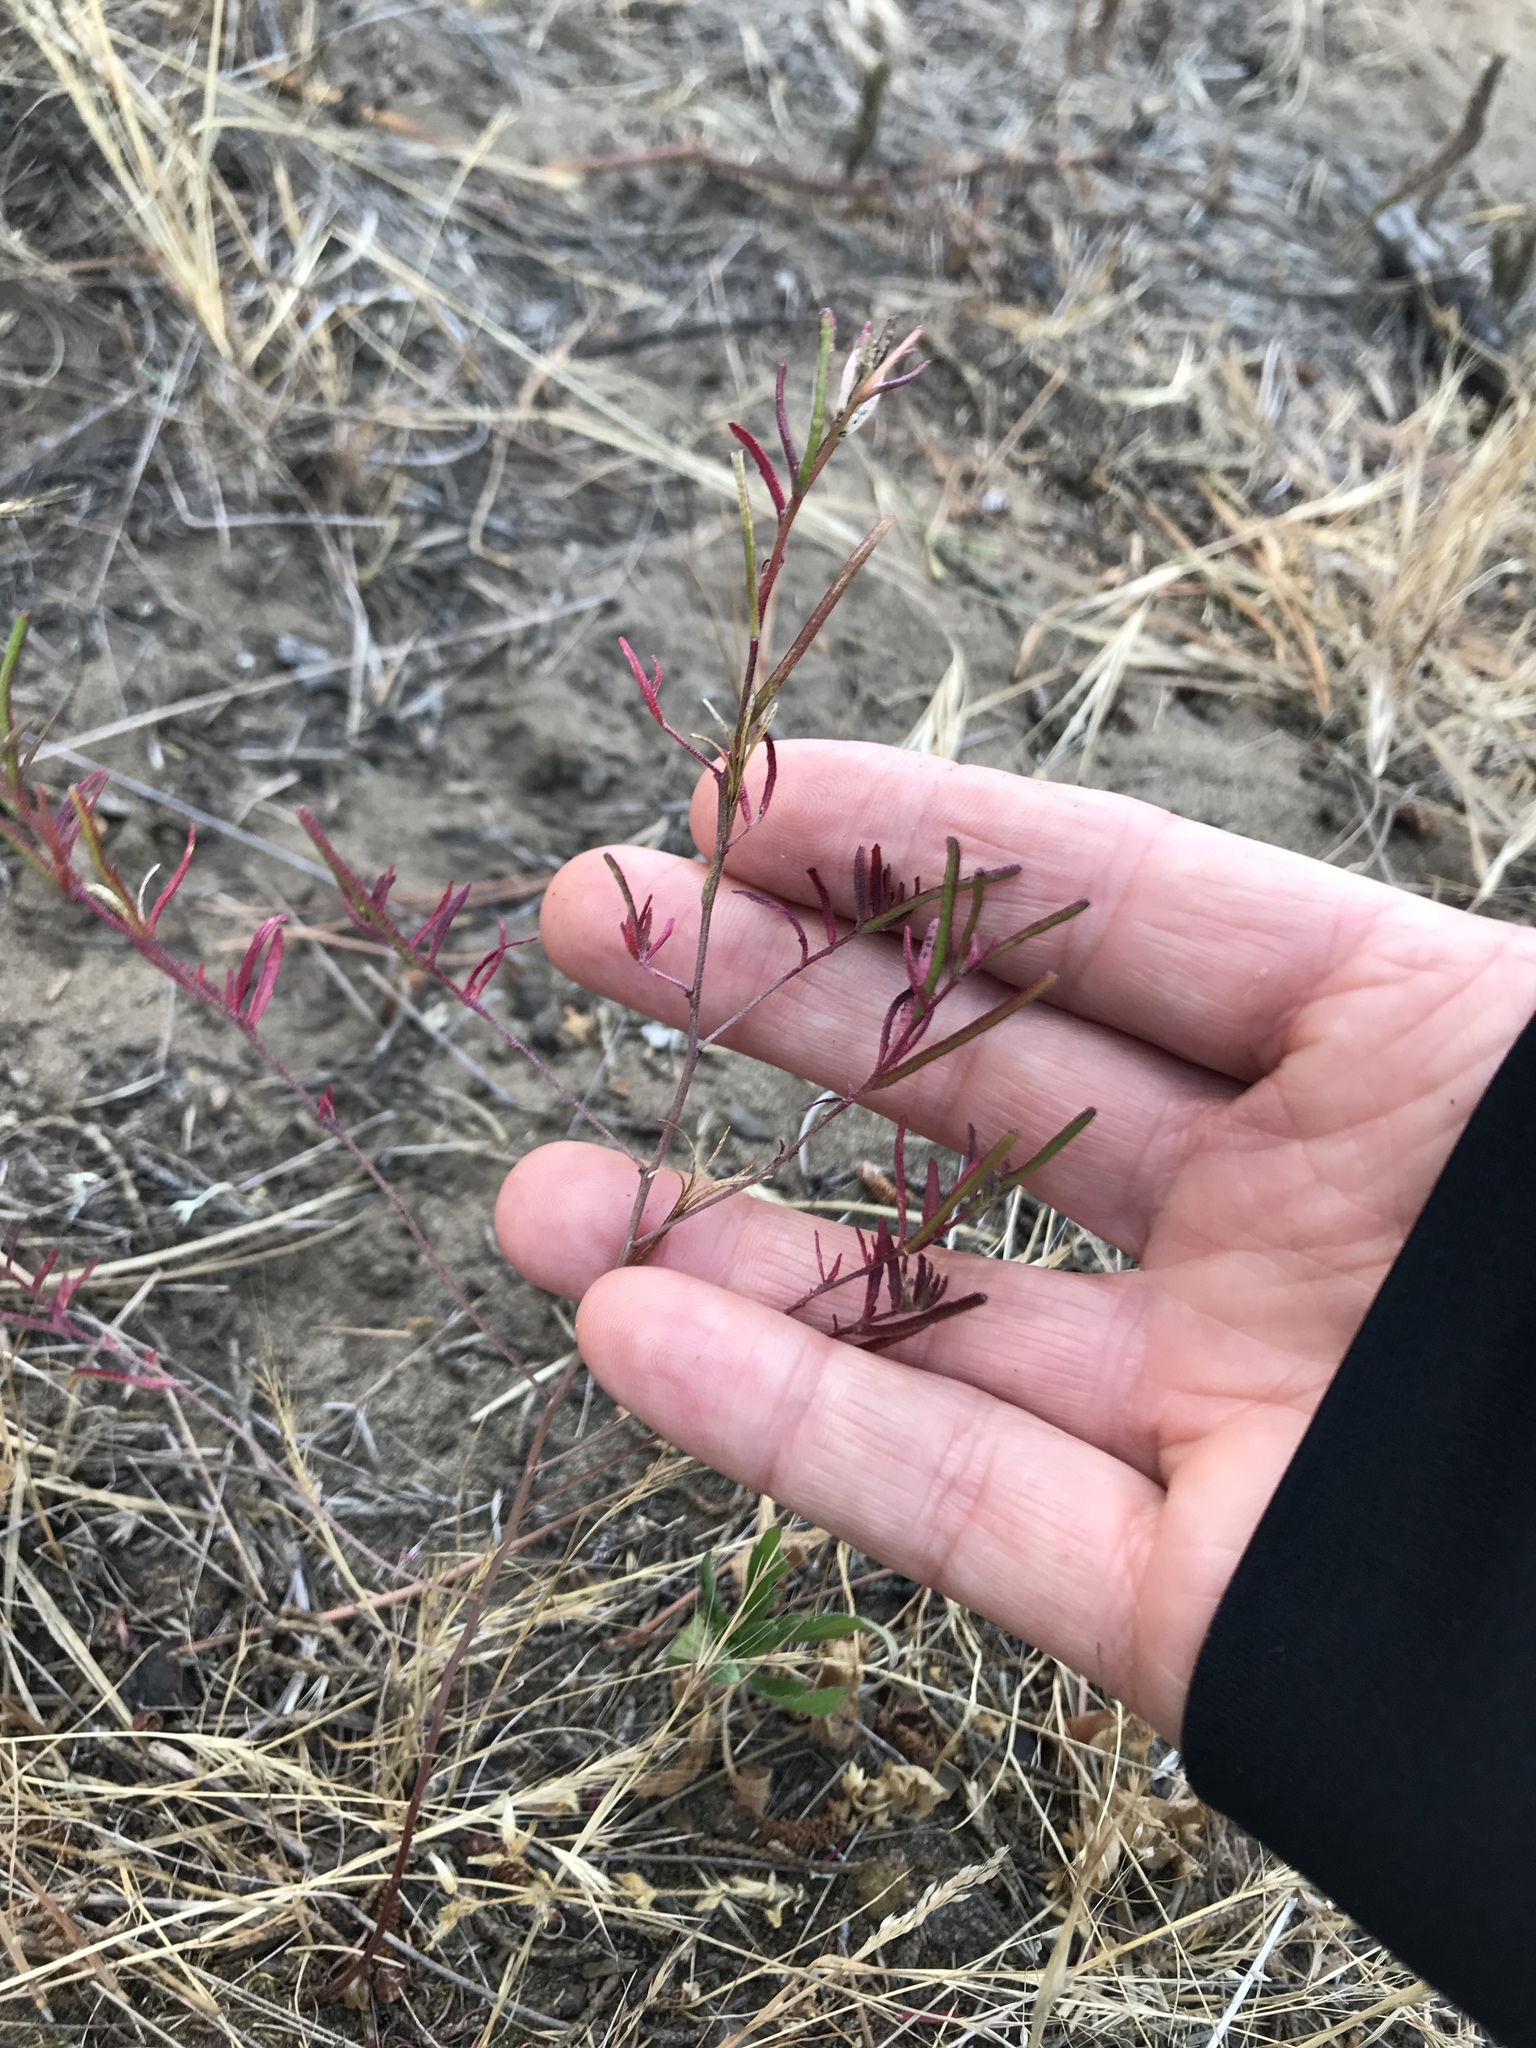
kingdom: Plantae
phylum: Tracheophyta
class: Magnoliopsida
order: Myrtales
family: Onagraceae
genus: Camissonia
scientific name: Camissonia strigulosa
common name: Contorted-primrose
